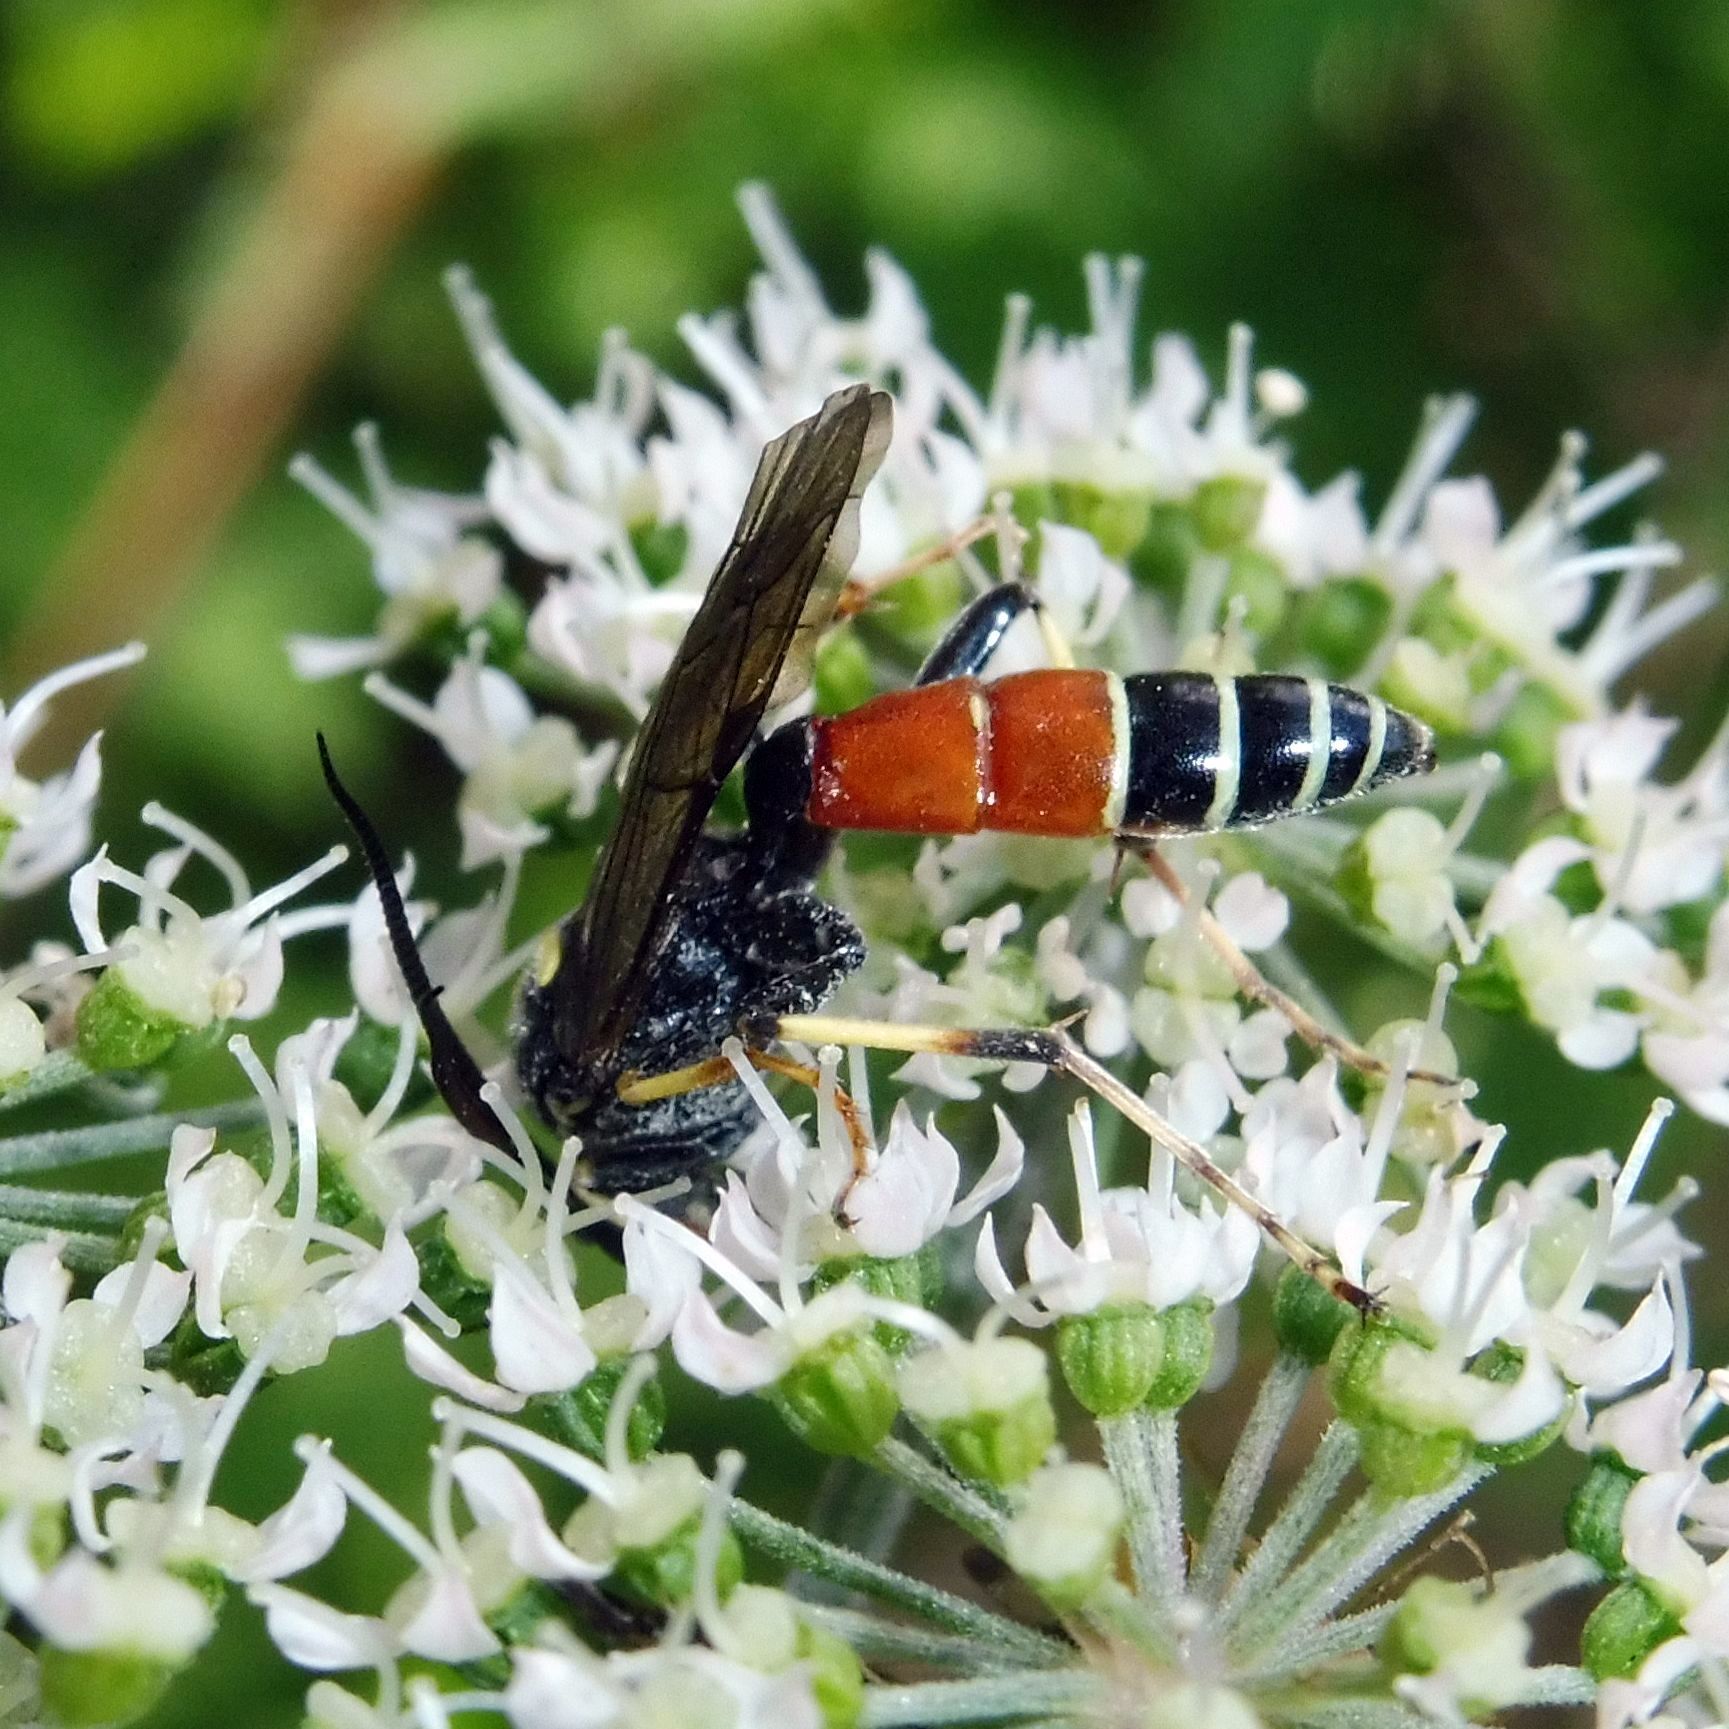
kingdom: Animalia
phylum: Arthropoda
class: Insecta
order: Hymenoptera
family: Ichneumonidae
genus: Ctenichneumon
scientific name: Ctenichneumon panzeri
